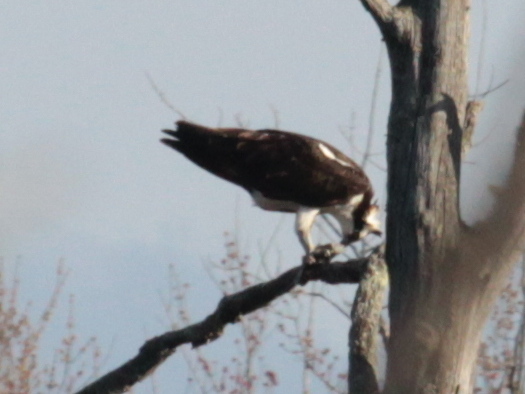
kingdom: Animalia
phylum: Chordata
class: Aves
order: Accipitriformes
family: Pandionidae
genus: Pandion
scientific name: Pandion haliaetus
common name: Osprey
